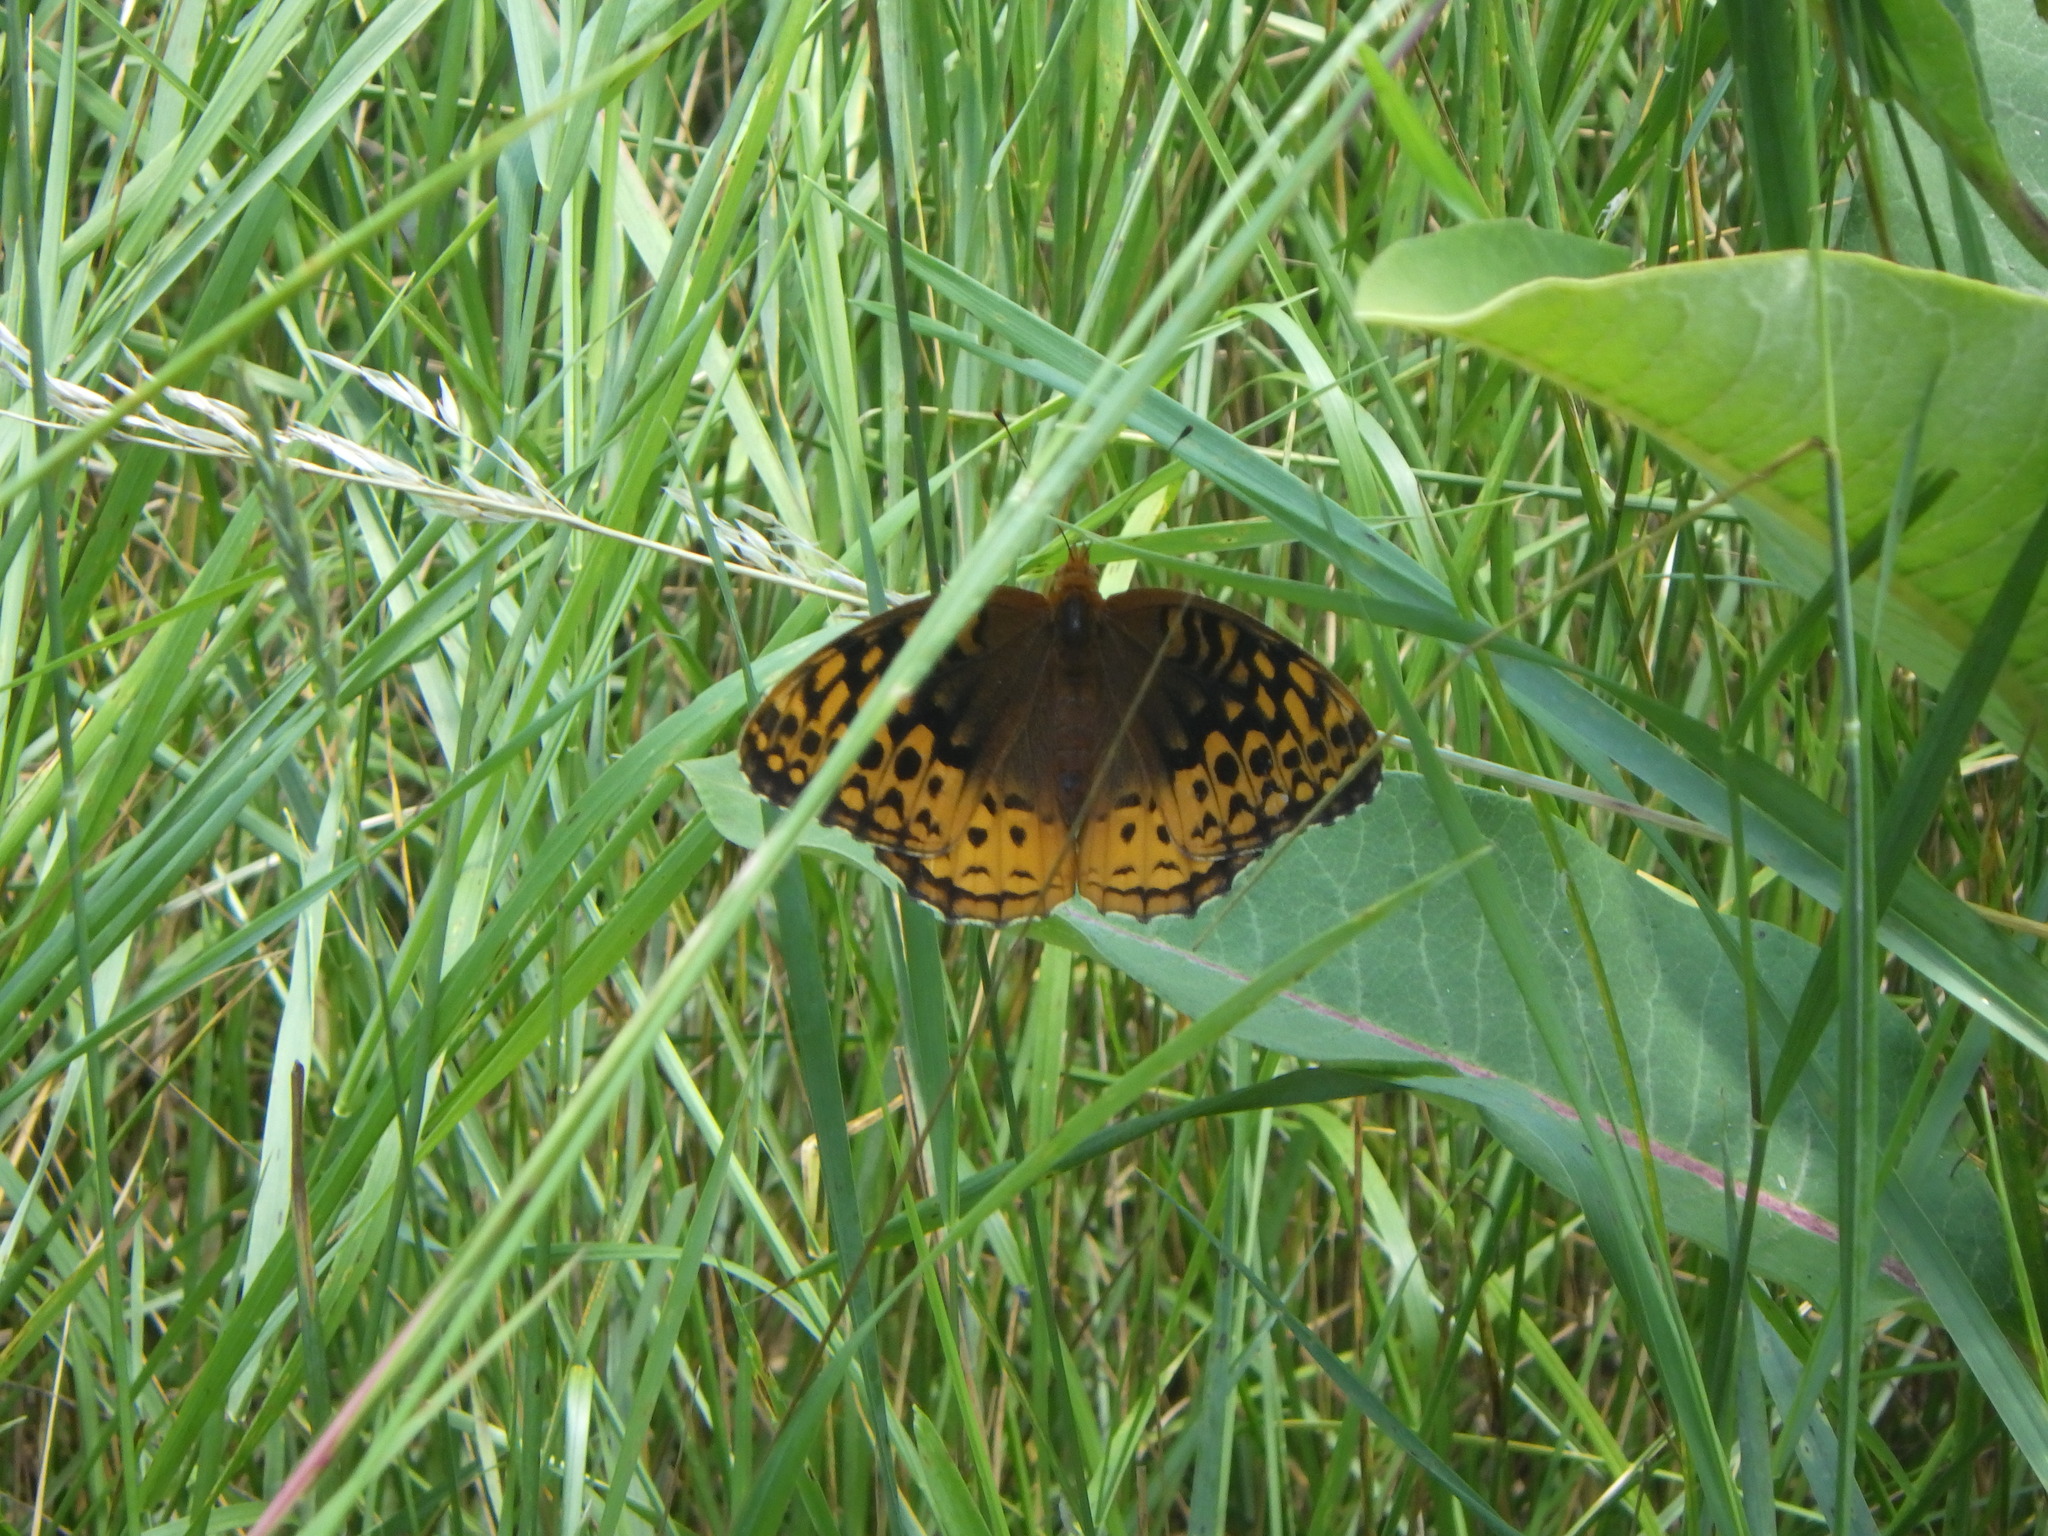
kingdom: Animalia
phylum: Arthropoda
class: Insecta
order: Lepidoptera
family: Nymphalidae
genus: Speyeria
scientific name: Speyeria cybele
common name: Great spangled fritillary
